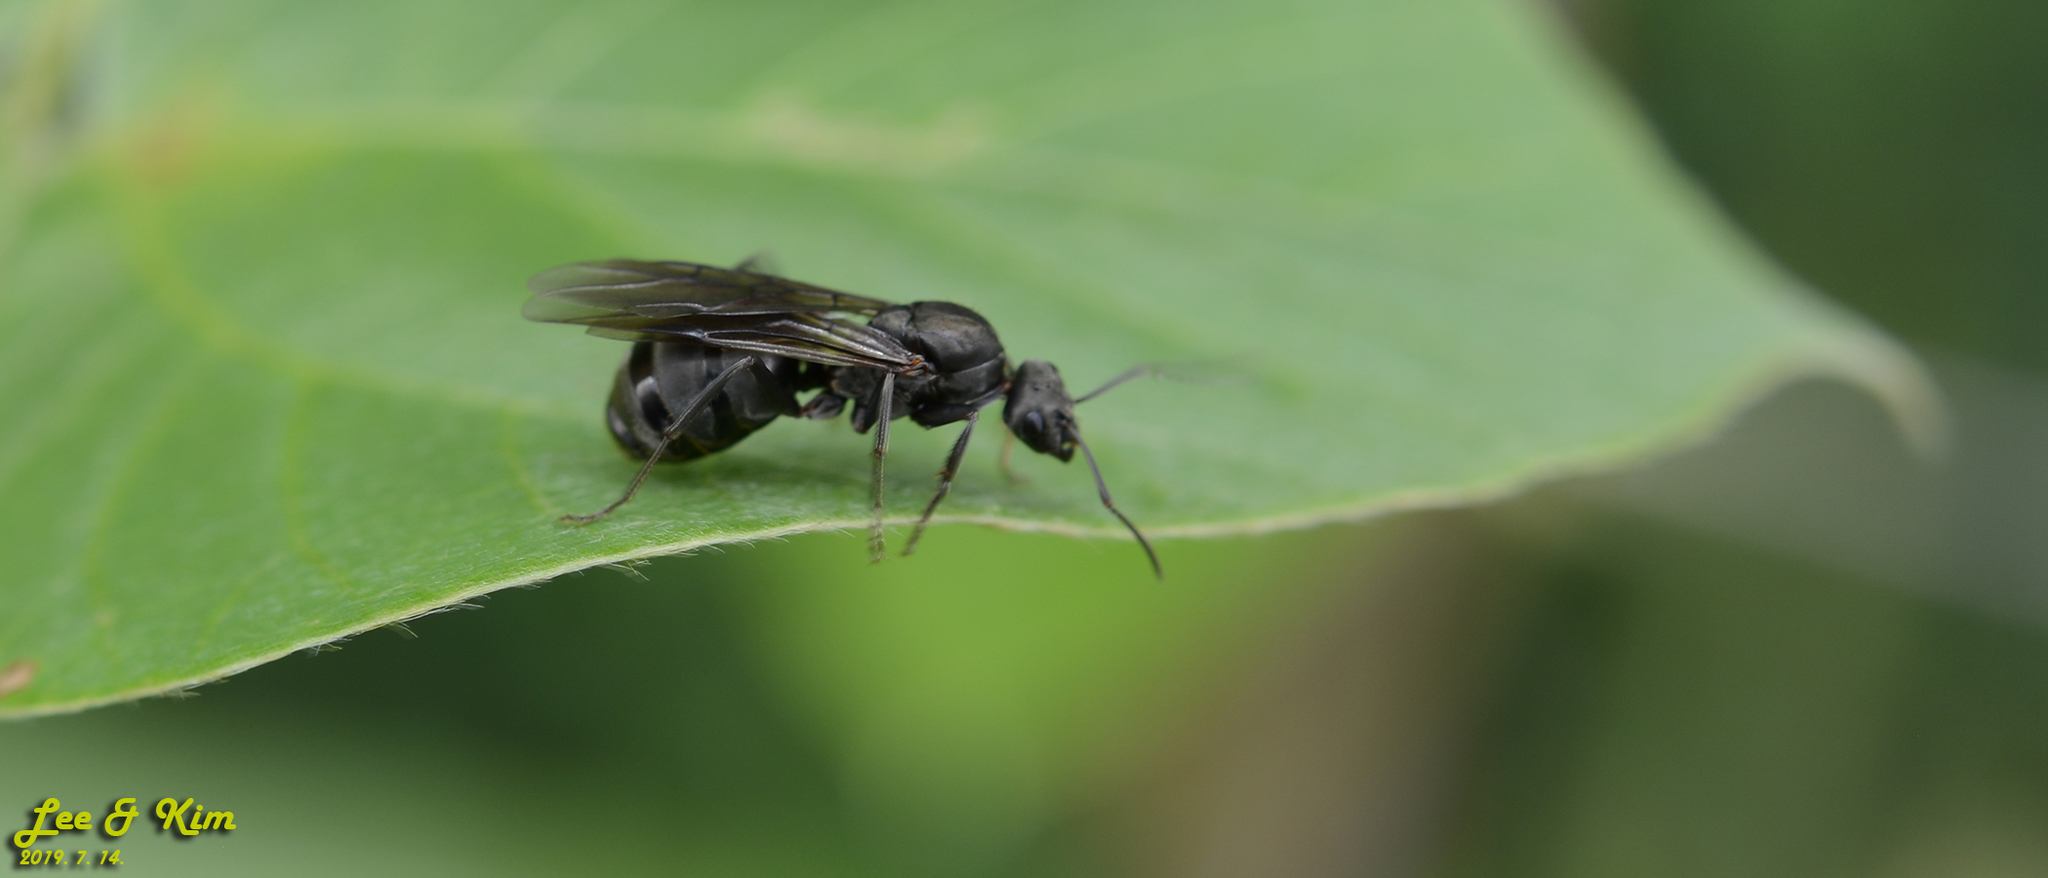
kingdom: Animalia
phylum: Arthropoda
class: Insecta
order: Hymenoptera
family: Formicidae
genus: Formica
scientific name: Formica japonica
